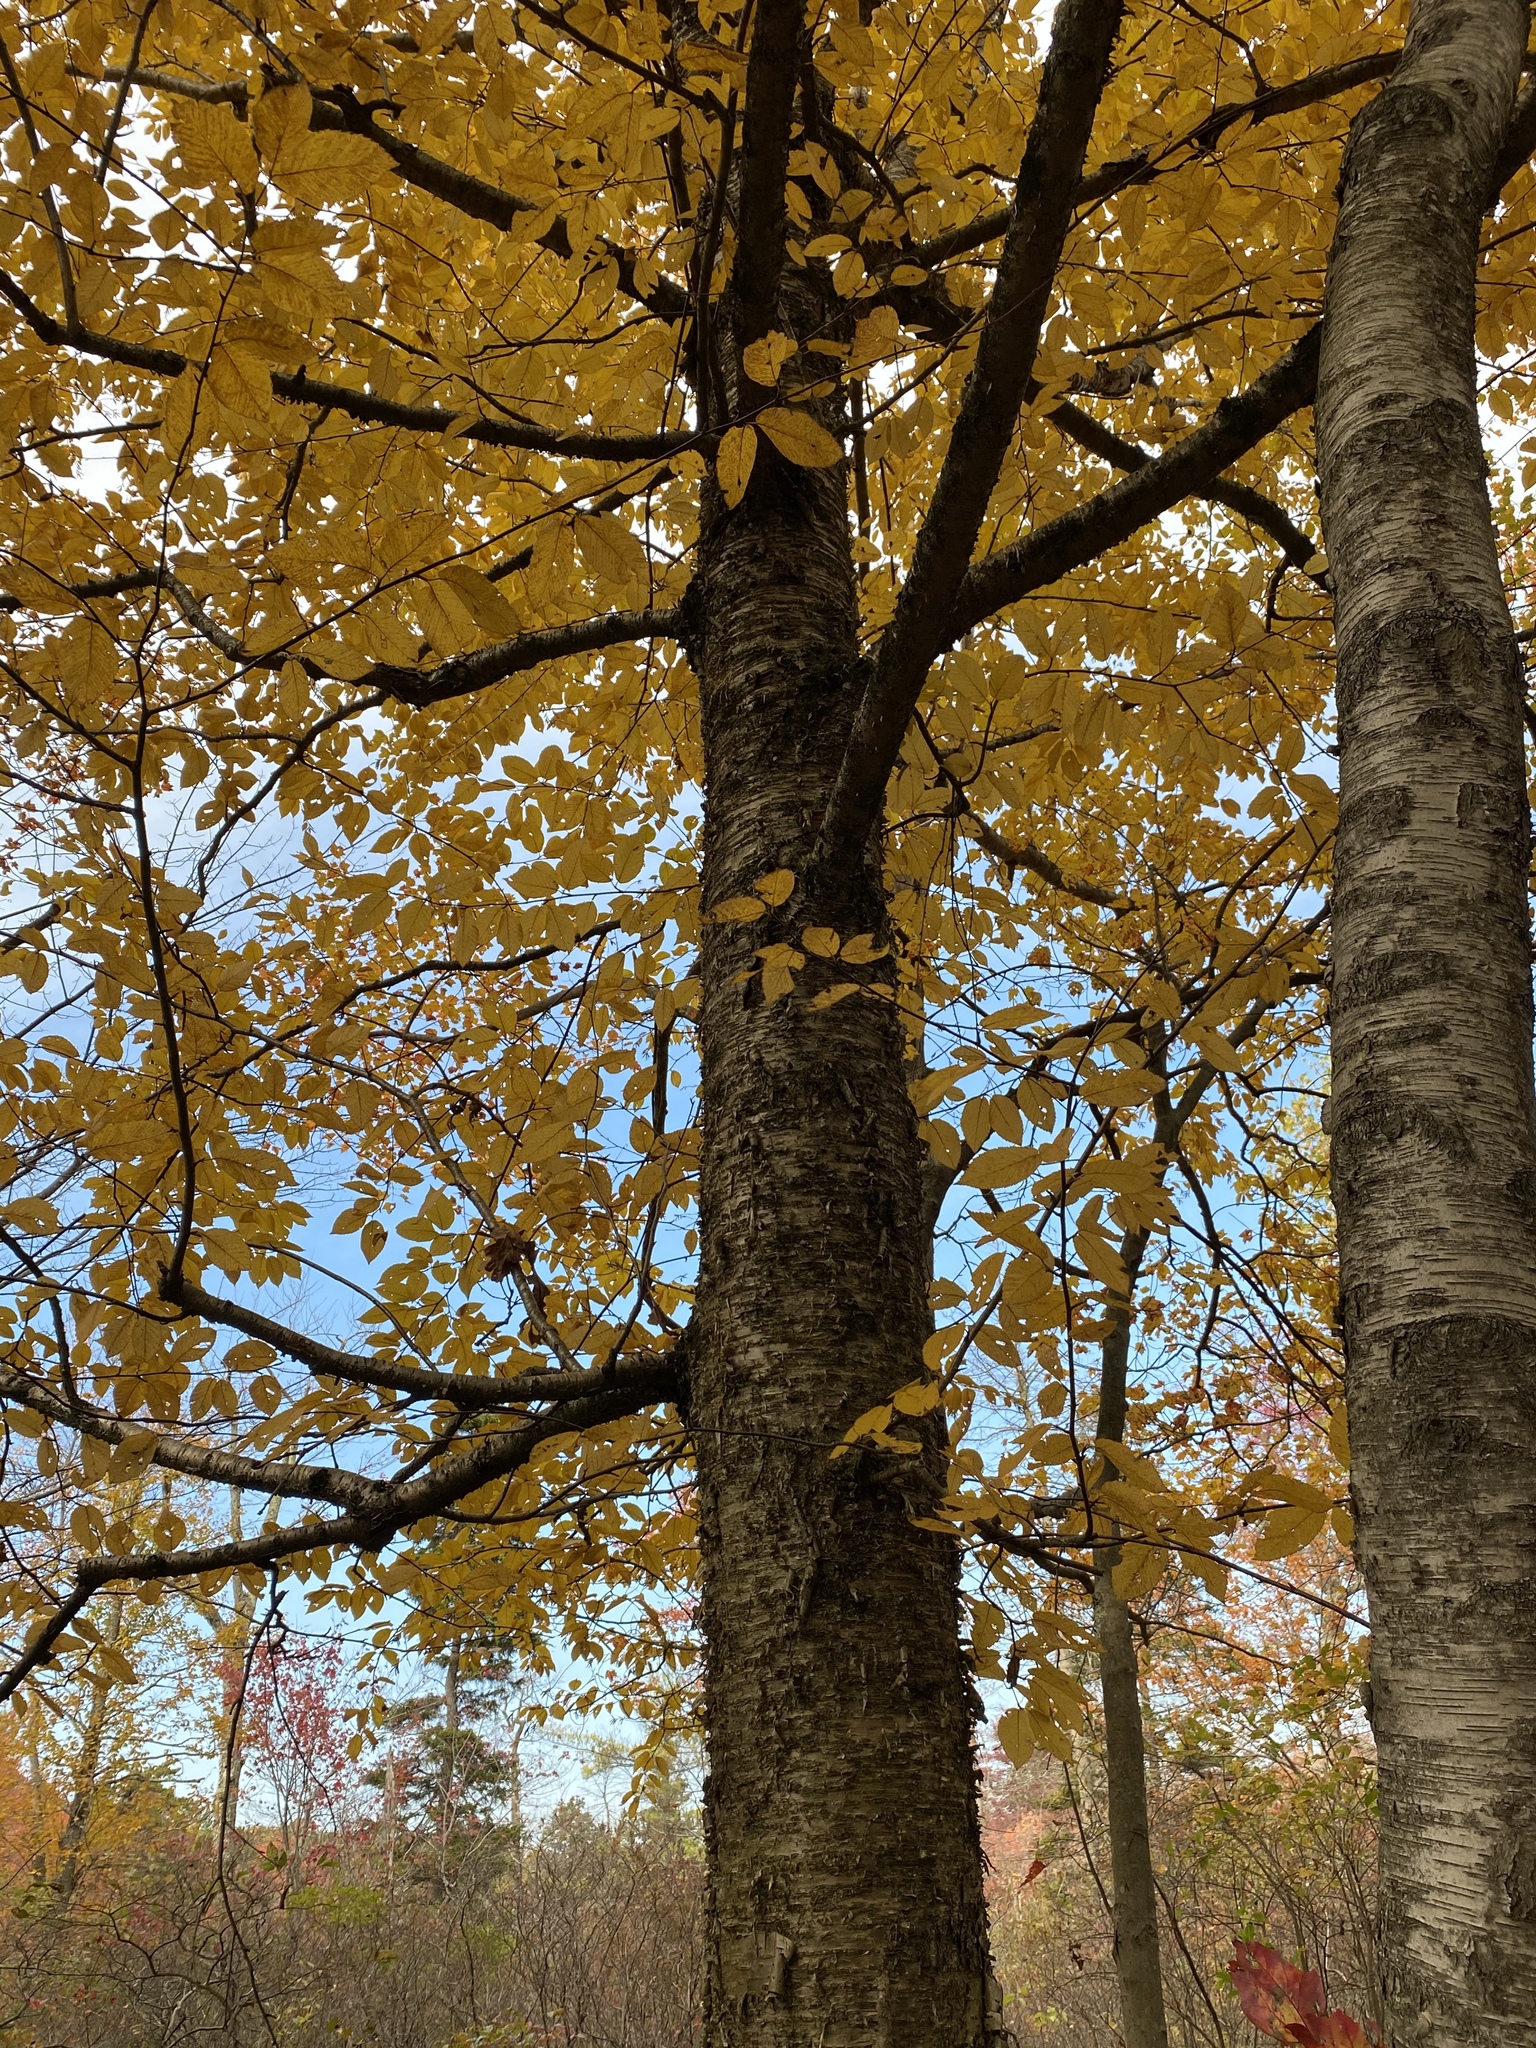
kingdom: Plantae
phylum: Tracheophyta
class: Magnoliopsida
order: Fagales
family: Betulaceae
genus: Betula
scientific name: Betula alleghaniensis
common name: Yellow birch
